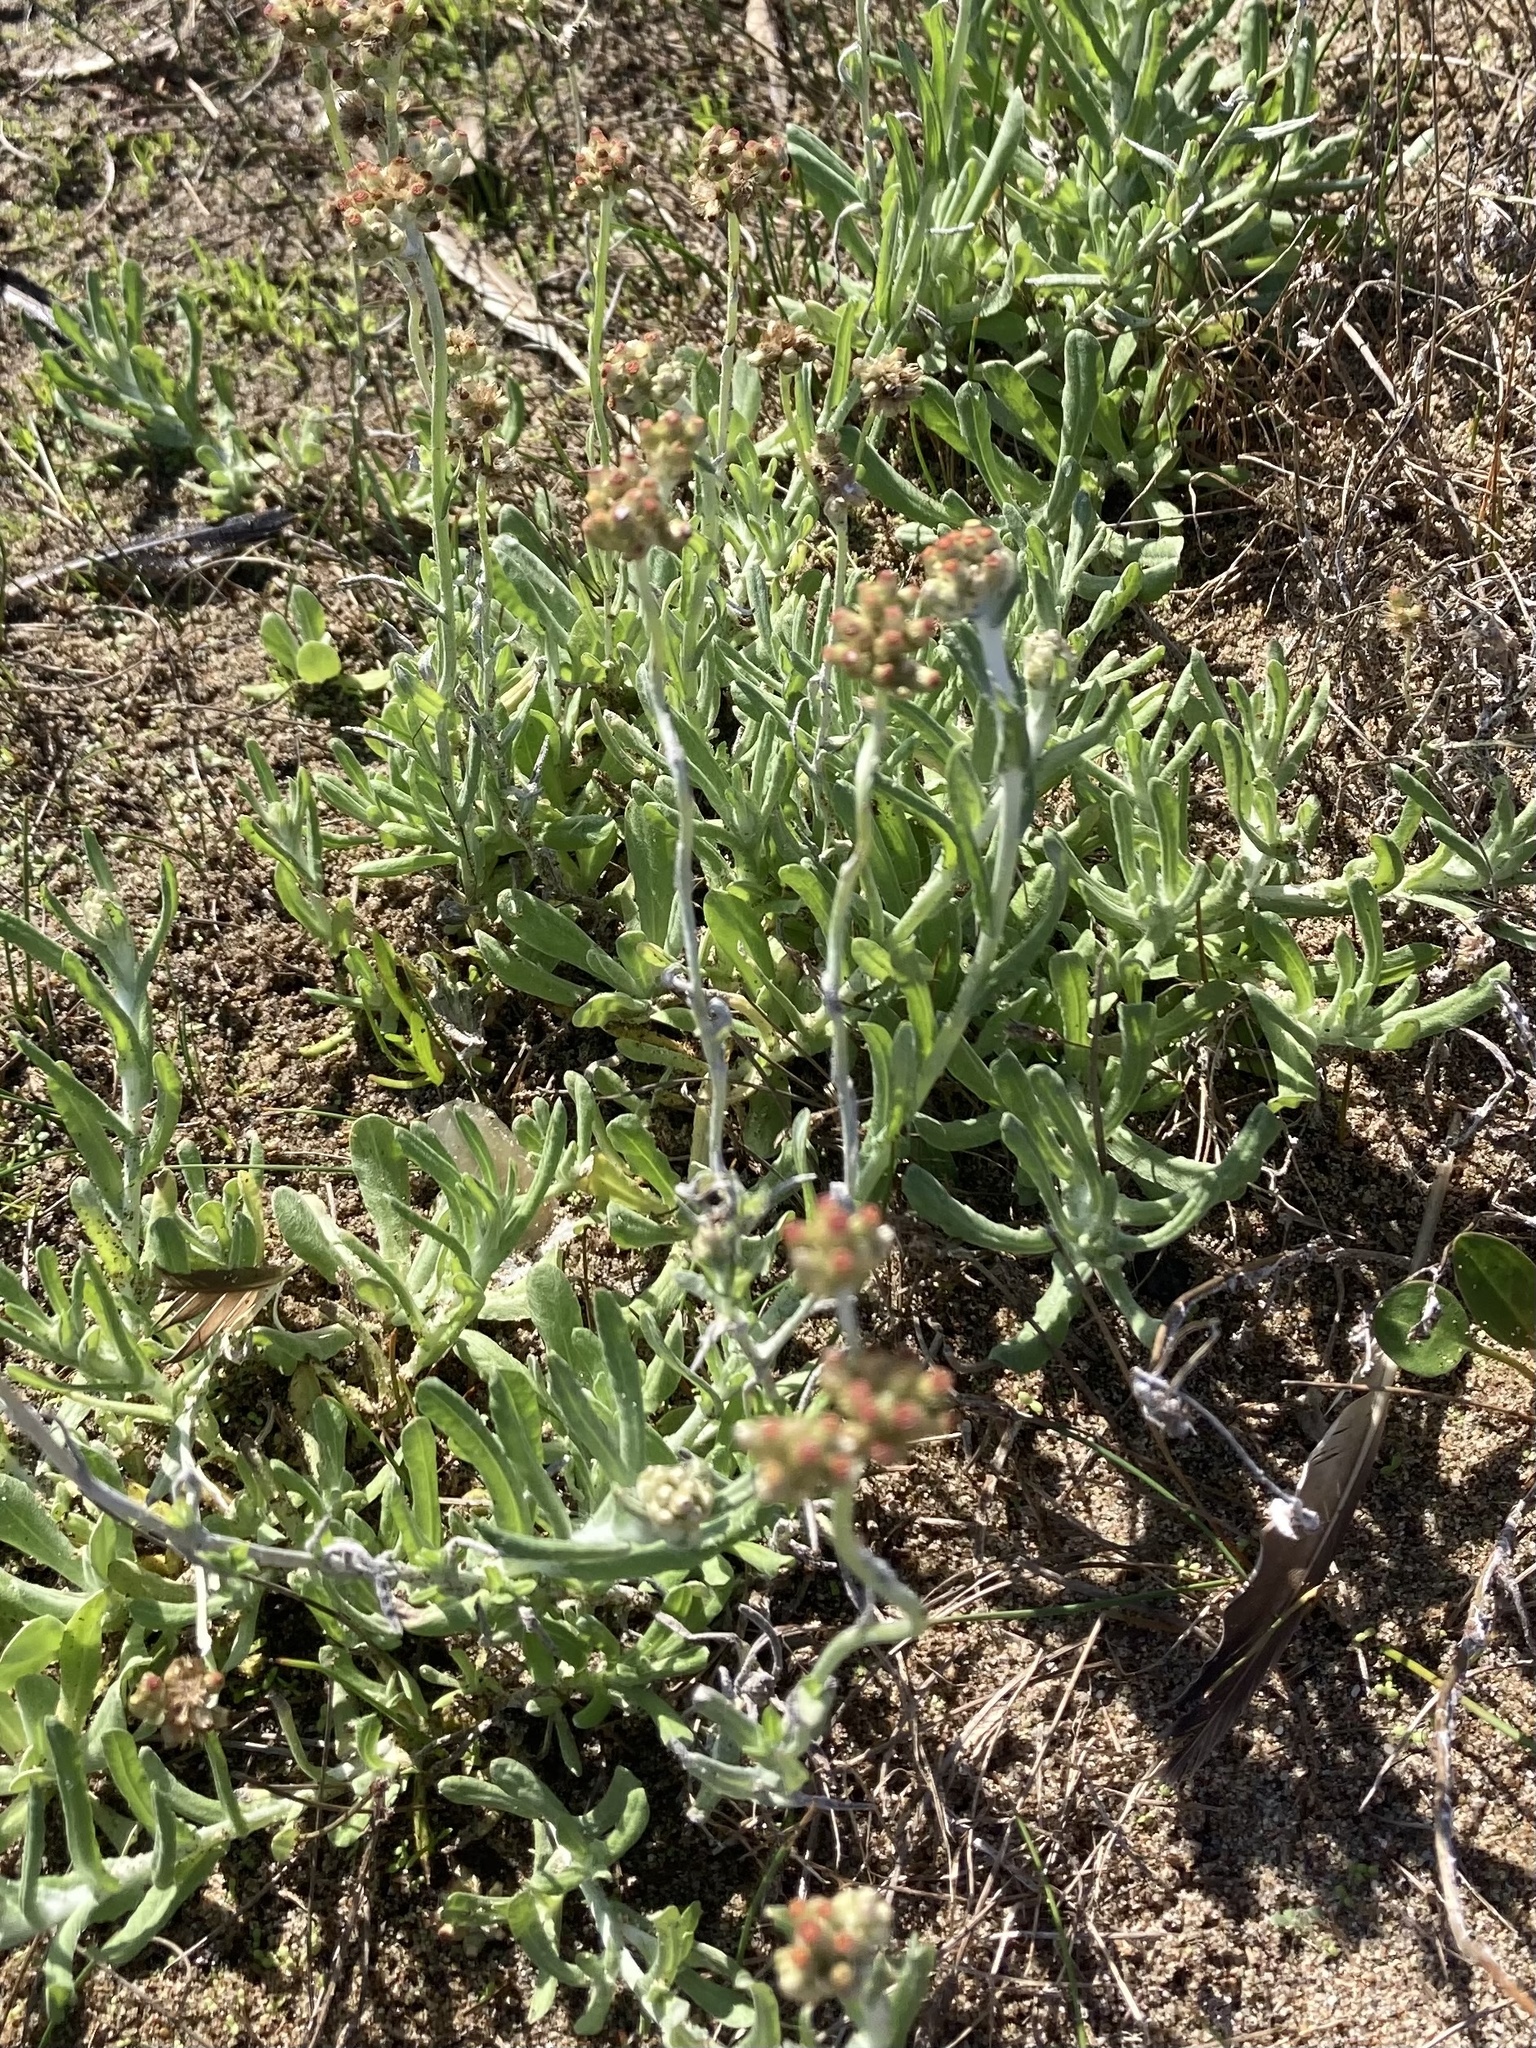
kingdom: Plantae
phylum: Tracheophyta
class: Magnoliopsida
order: Asterales
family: Asteraceae
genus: Helichrysum
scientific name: Helichrysum luteoalbum
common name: Daisy
